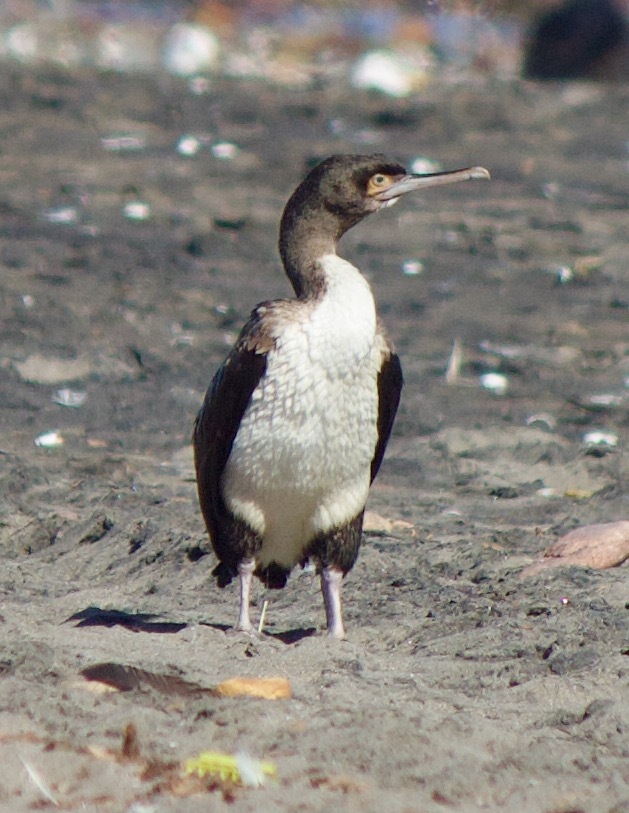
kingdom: Animalia
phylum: Chordata
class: Aves
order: Suliformes
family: Phalacrocoracidae
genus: Leucocarbo
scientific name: Leucocarbo bougainvillii
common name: Guanay cormorant
